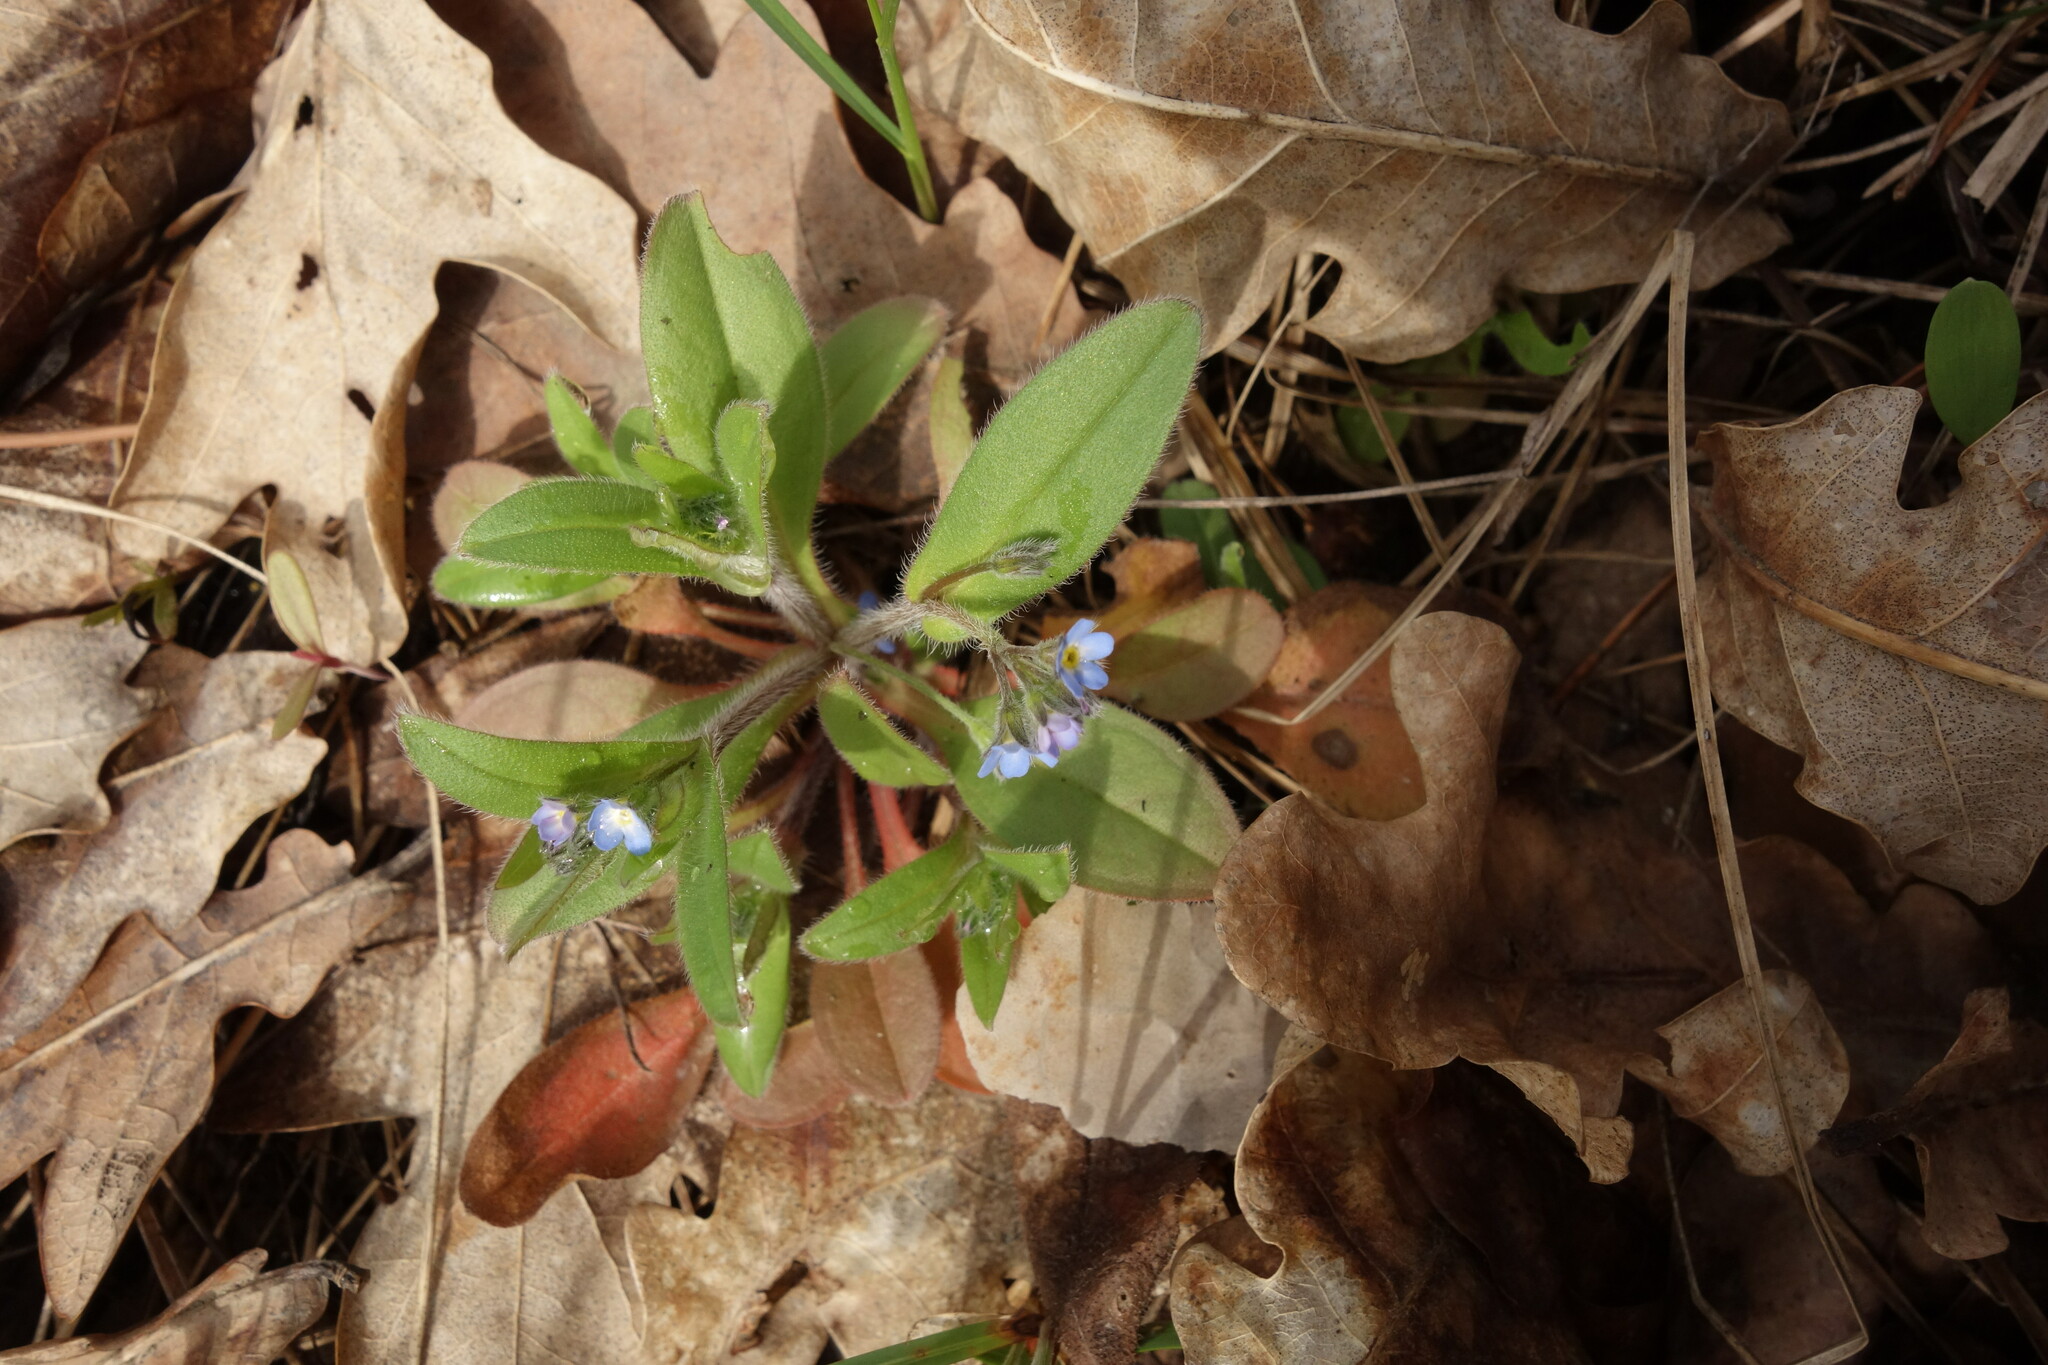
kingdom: Plantae
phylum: Tracheophyta
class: Magnoliopsida
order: Boraginales
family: Boraginaceae
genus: Myosotis
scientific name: Myosotis sparsiflora
